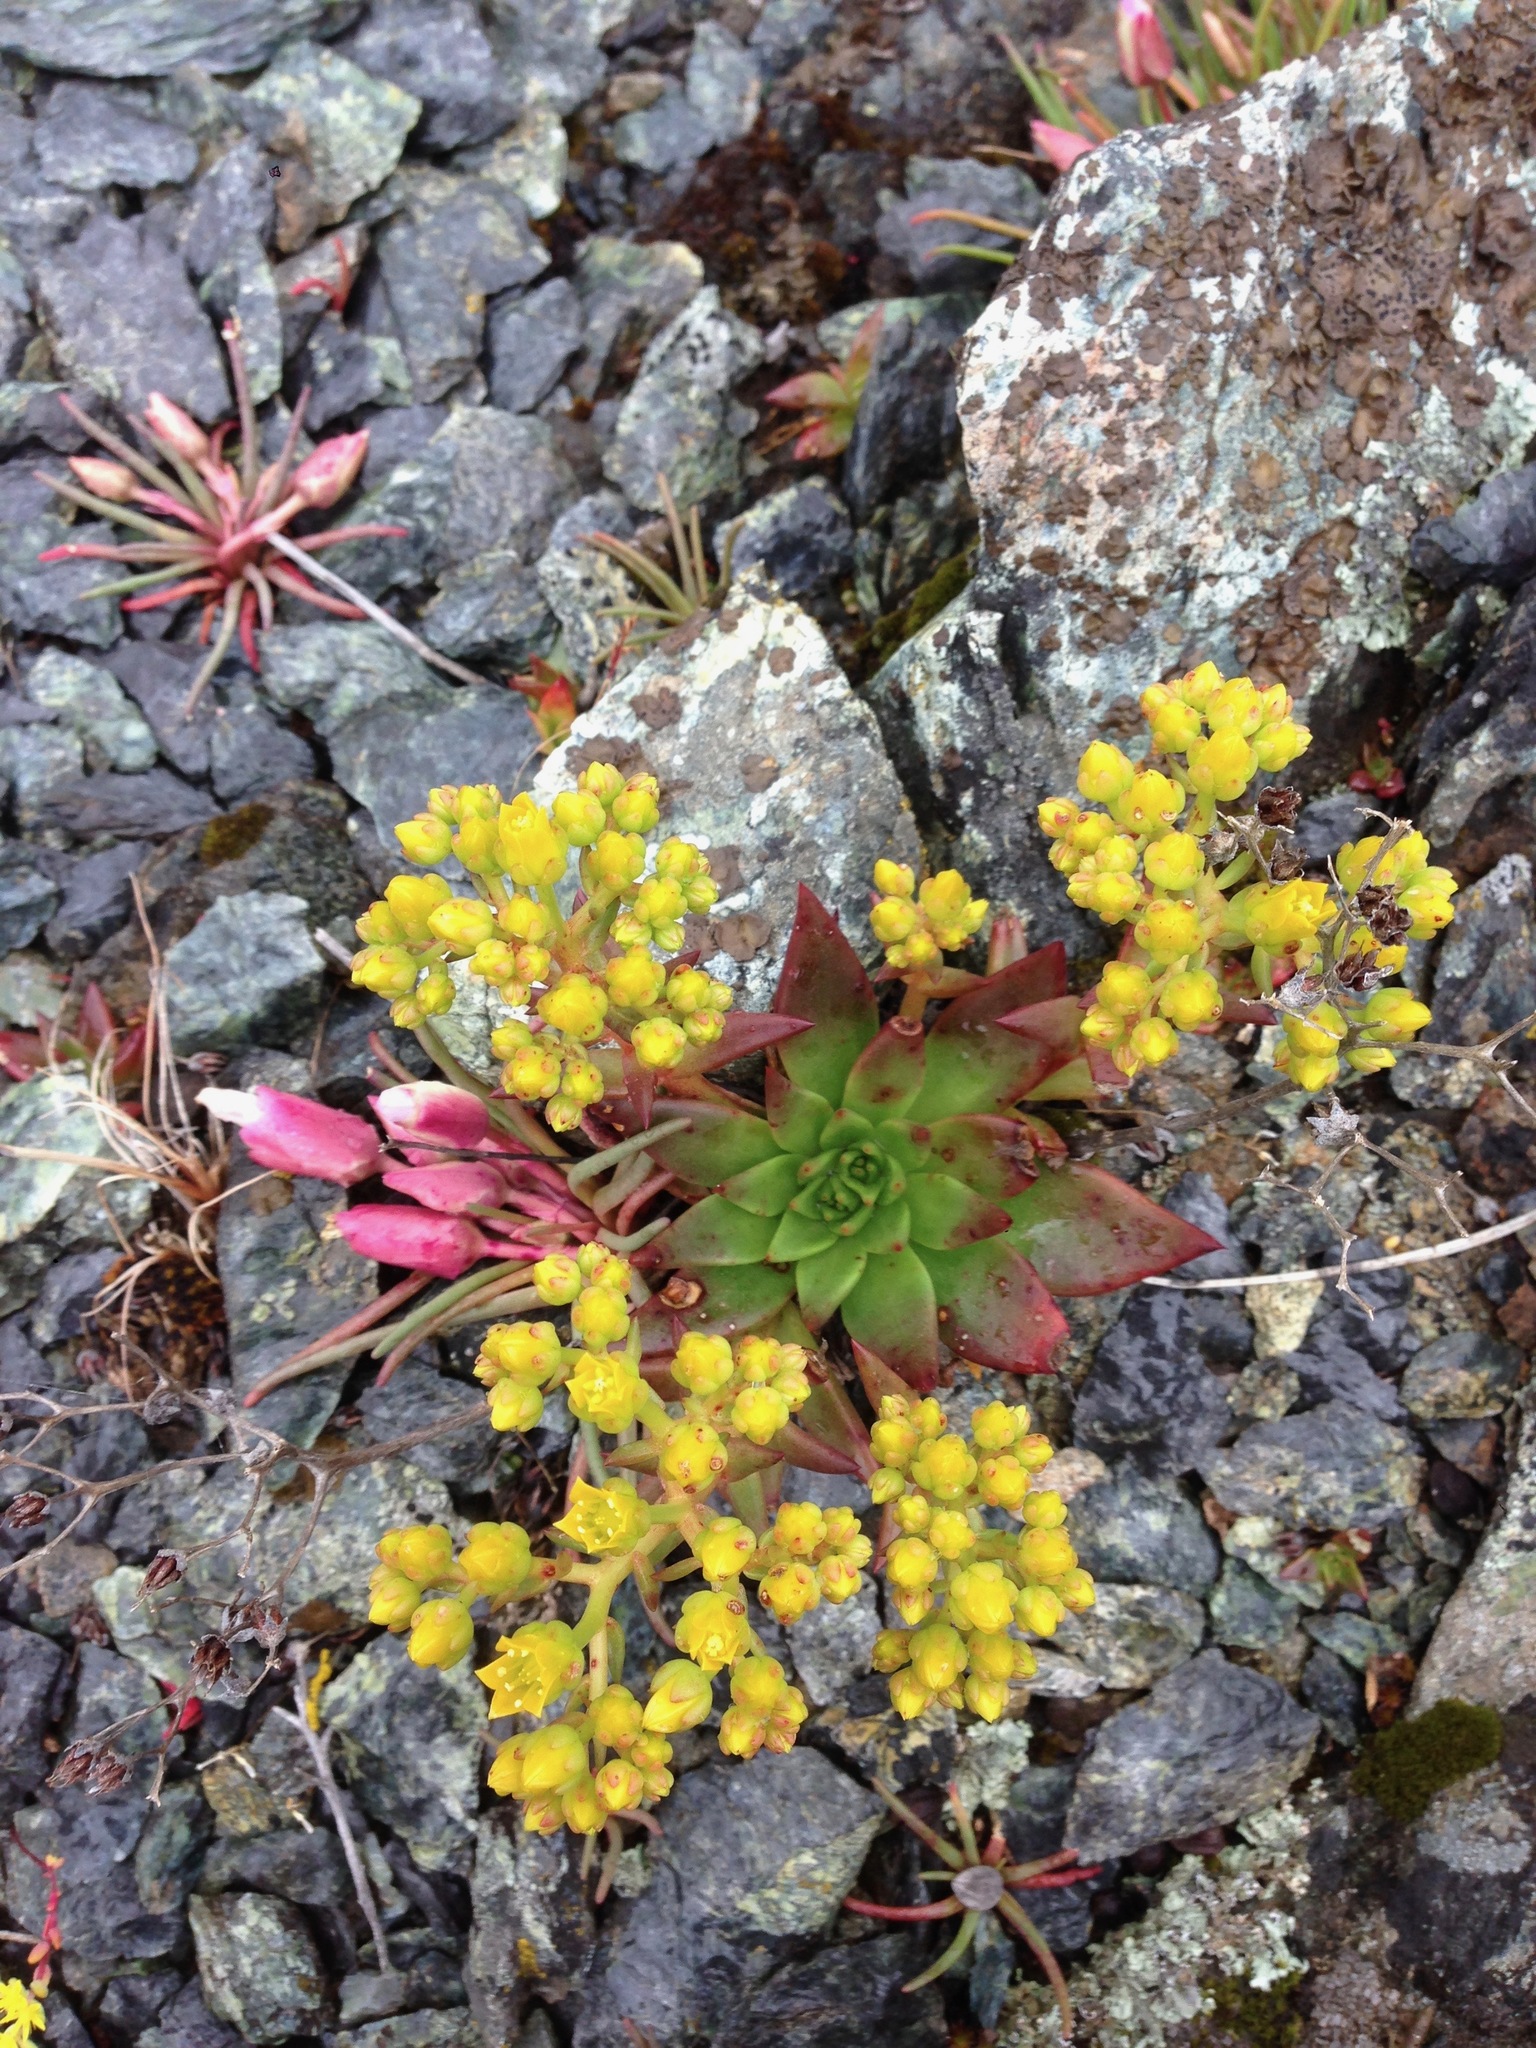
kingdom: Plantae
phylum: Tracheophyta
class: Magnoliopsida
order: Saxifragales
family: Crassulaceae
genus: Dudleya
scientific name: Dudleya cymosa
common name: Canyon dudleya
